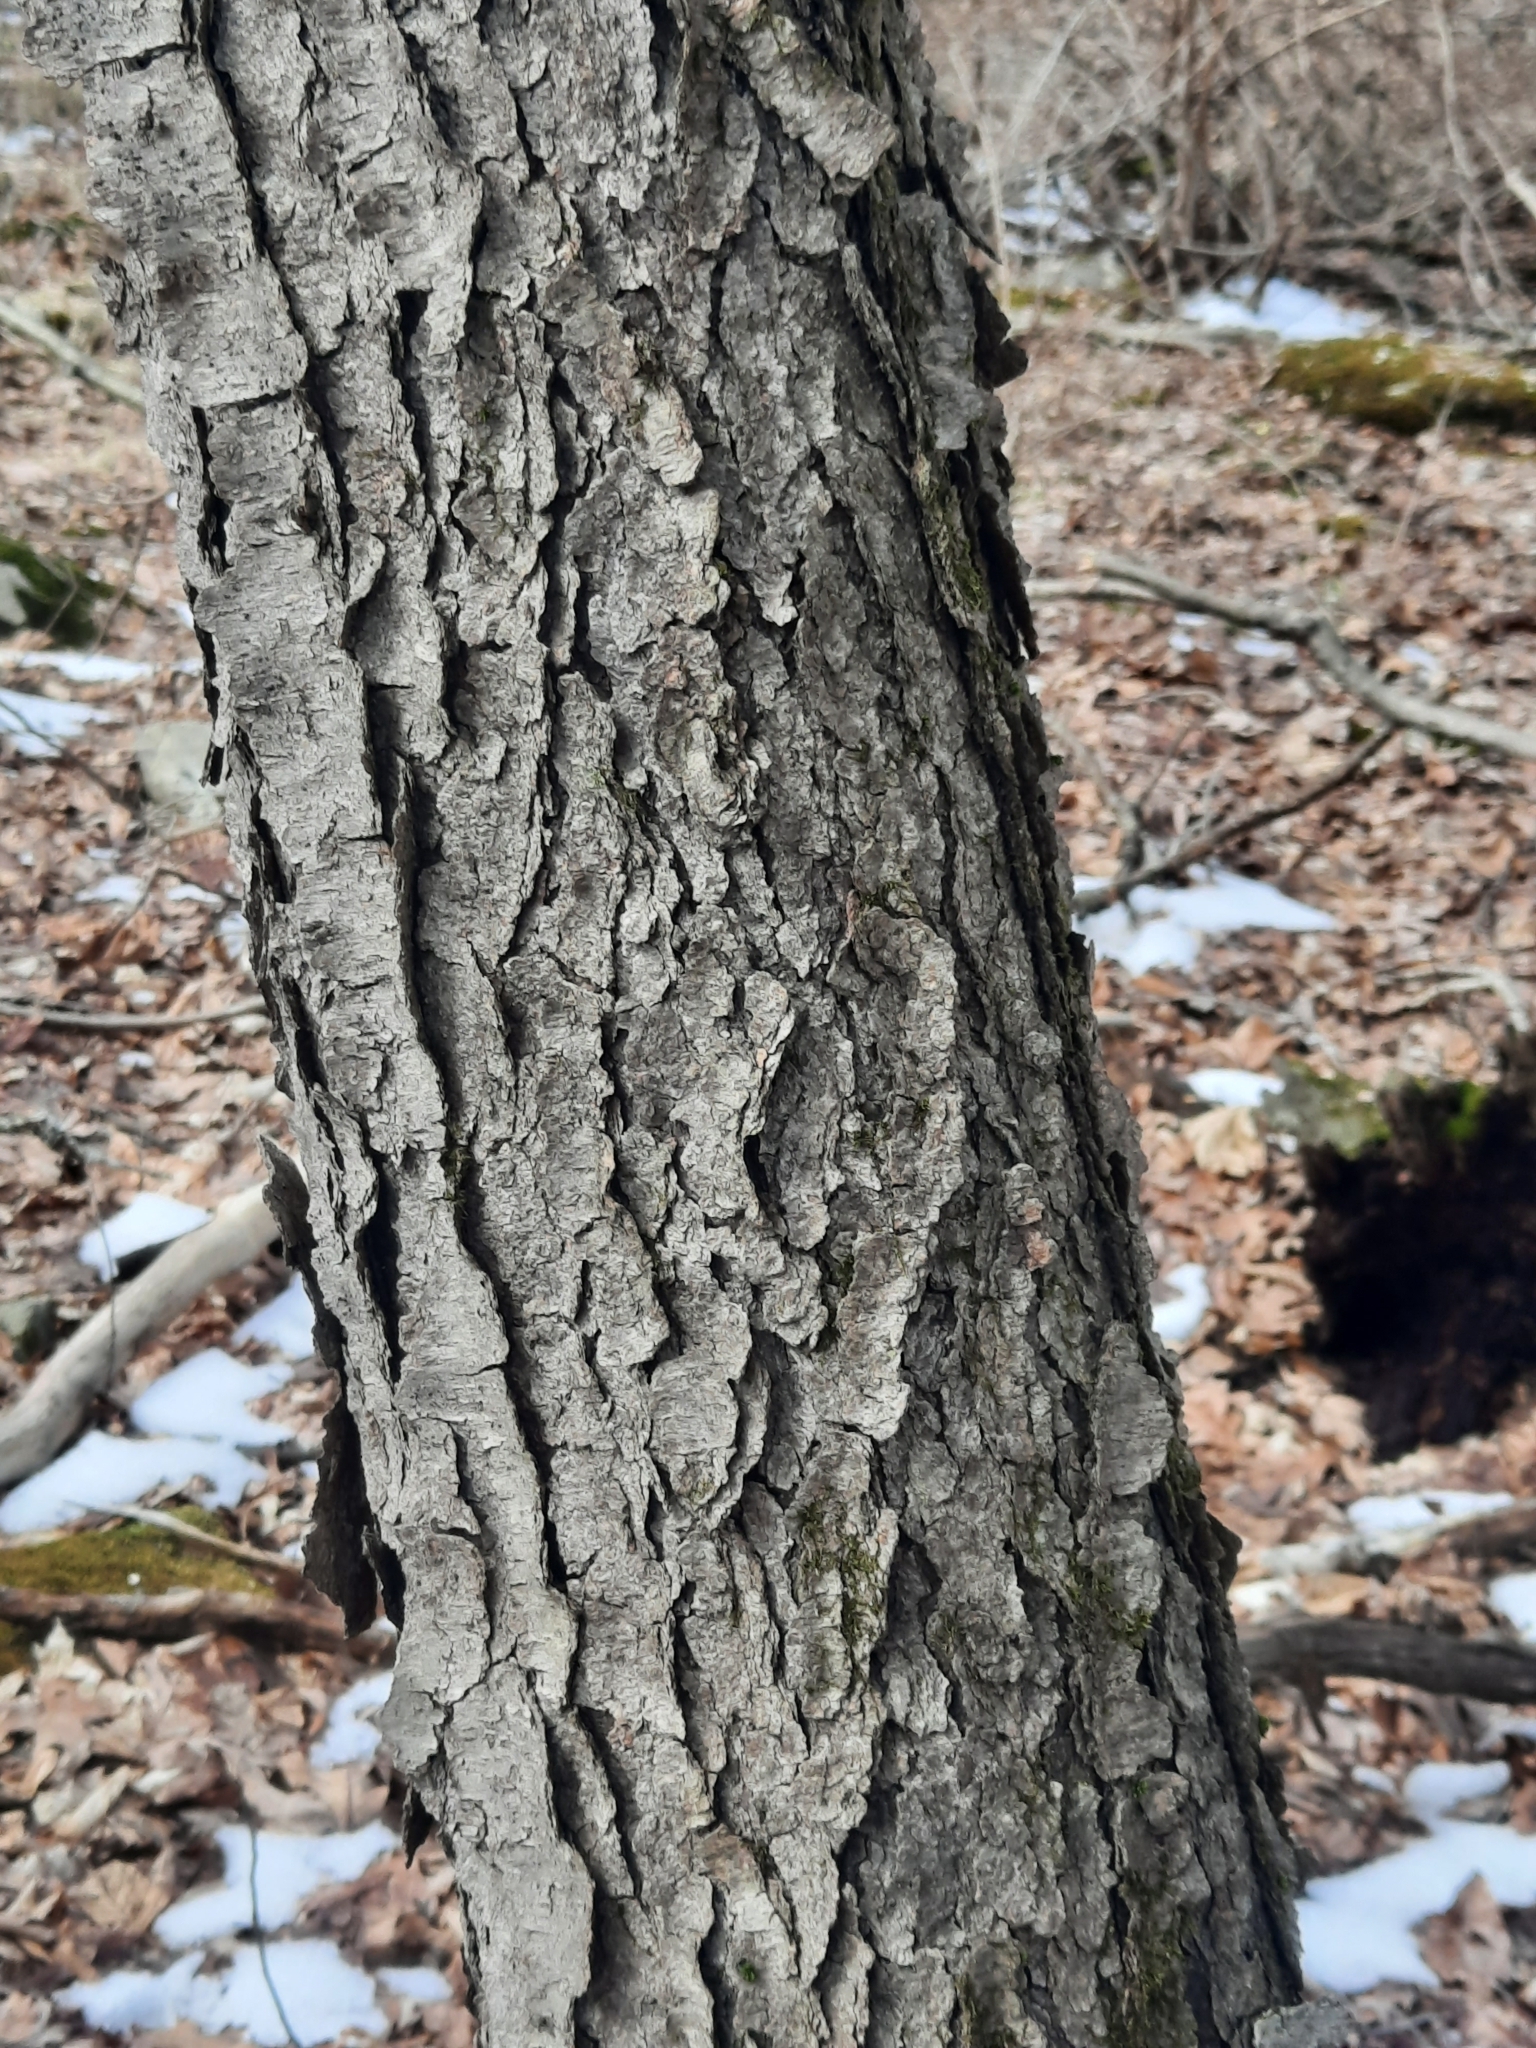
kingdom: Plantae
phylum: Tracheophyta
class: Magnoliopsida
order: Rosales
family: Rosaceae
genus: Prunus
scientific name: Prunus serotina
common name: Black cherry
